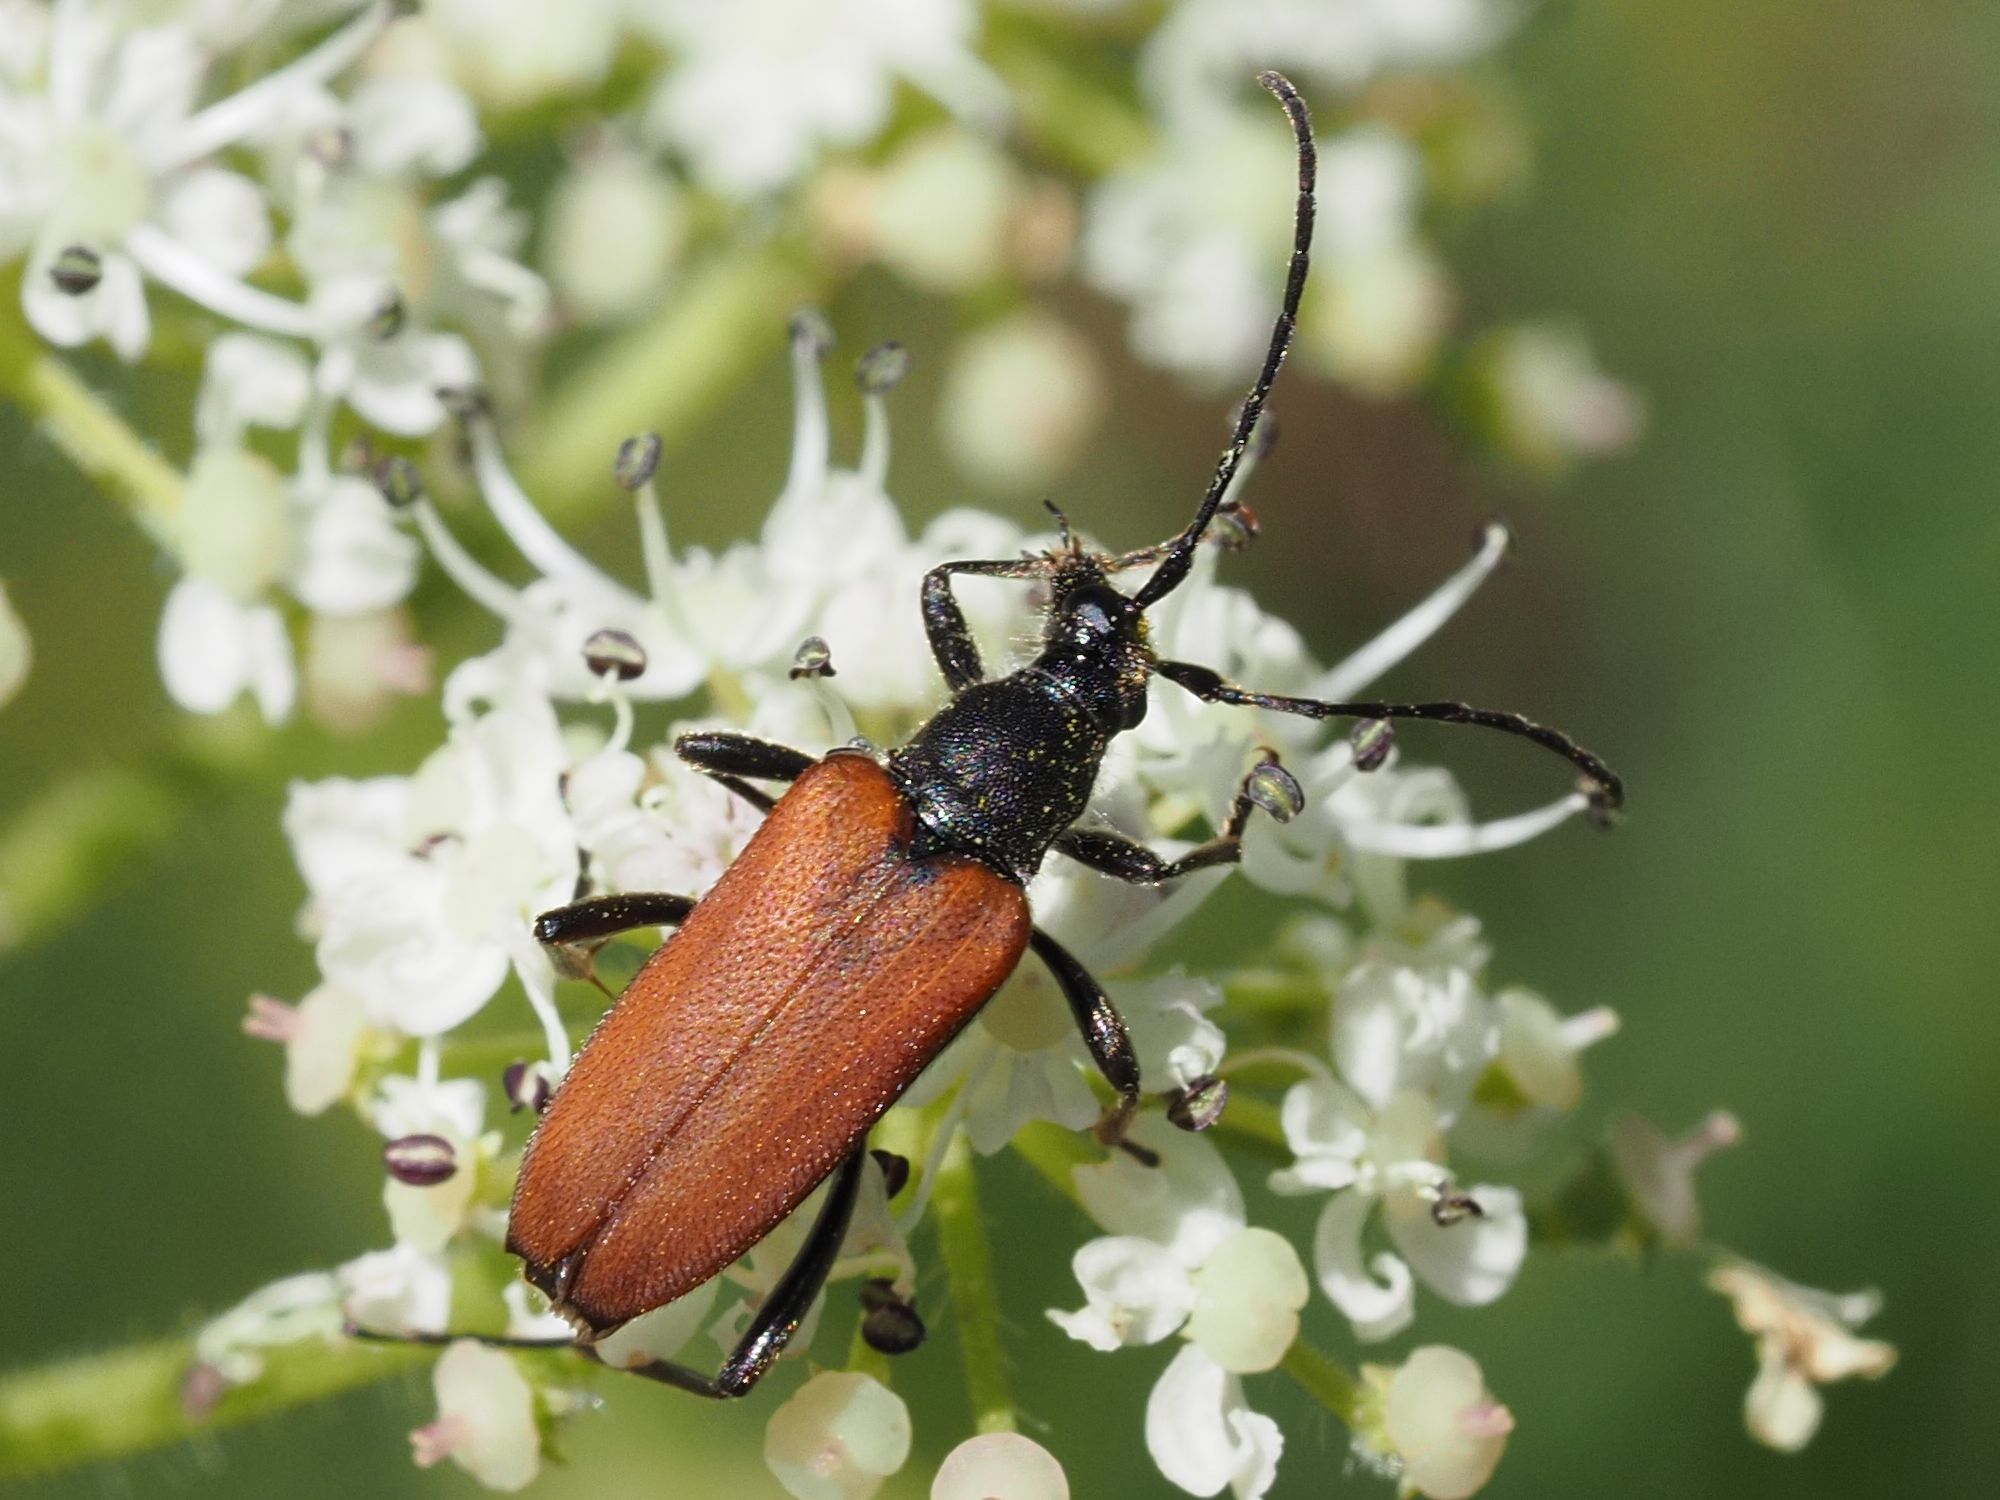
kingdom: Animalia
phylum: Arthropoda
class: Insecta
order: Coleoptera
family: Cerambycidae
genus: Anastrangalia
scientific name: Anastrangalia sanguinolenta
